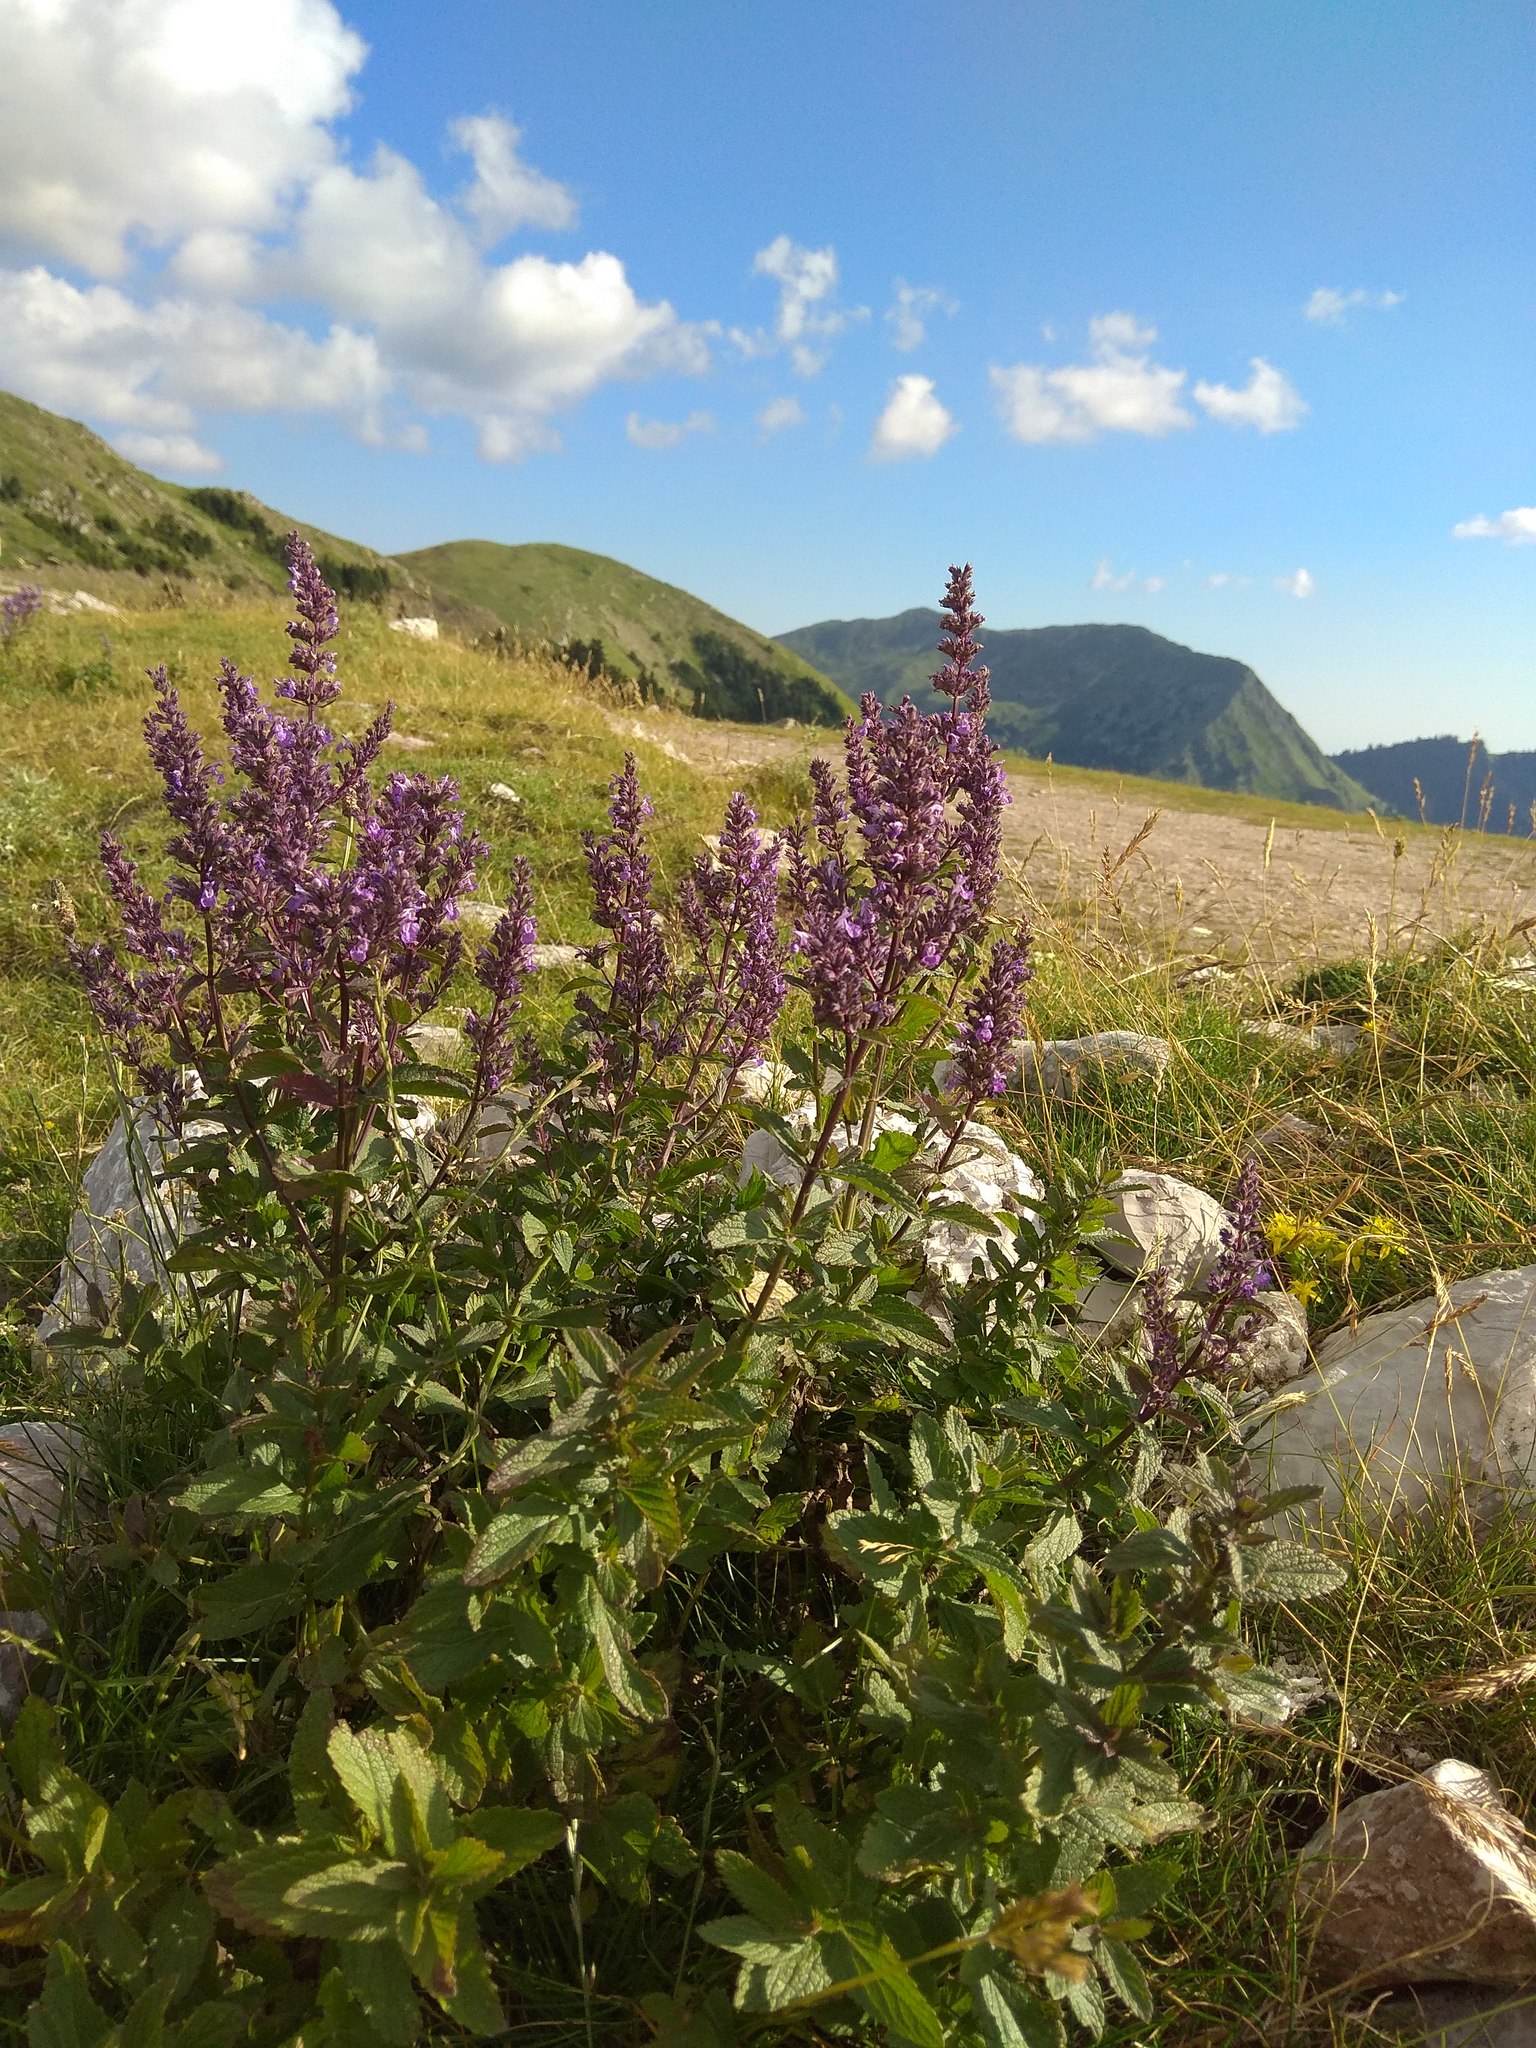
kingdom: Plantae
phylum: Tracheophyta
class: Magnoliopsida
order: Lamiales
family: Lamiaceae
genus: Nepeta
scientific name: Nepeta nuda
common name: Hairless catmint
